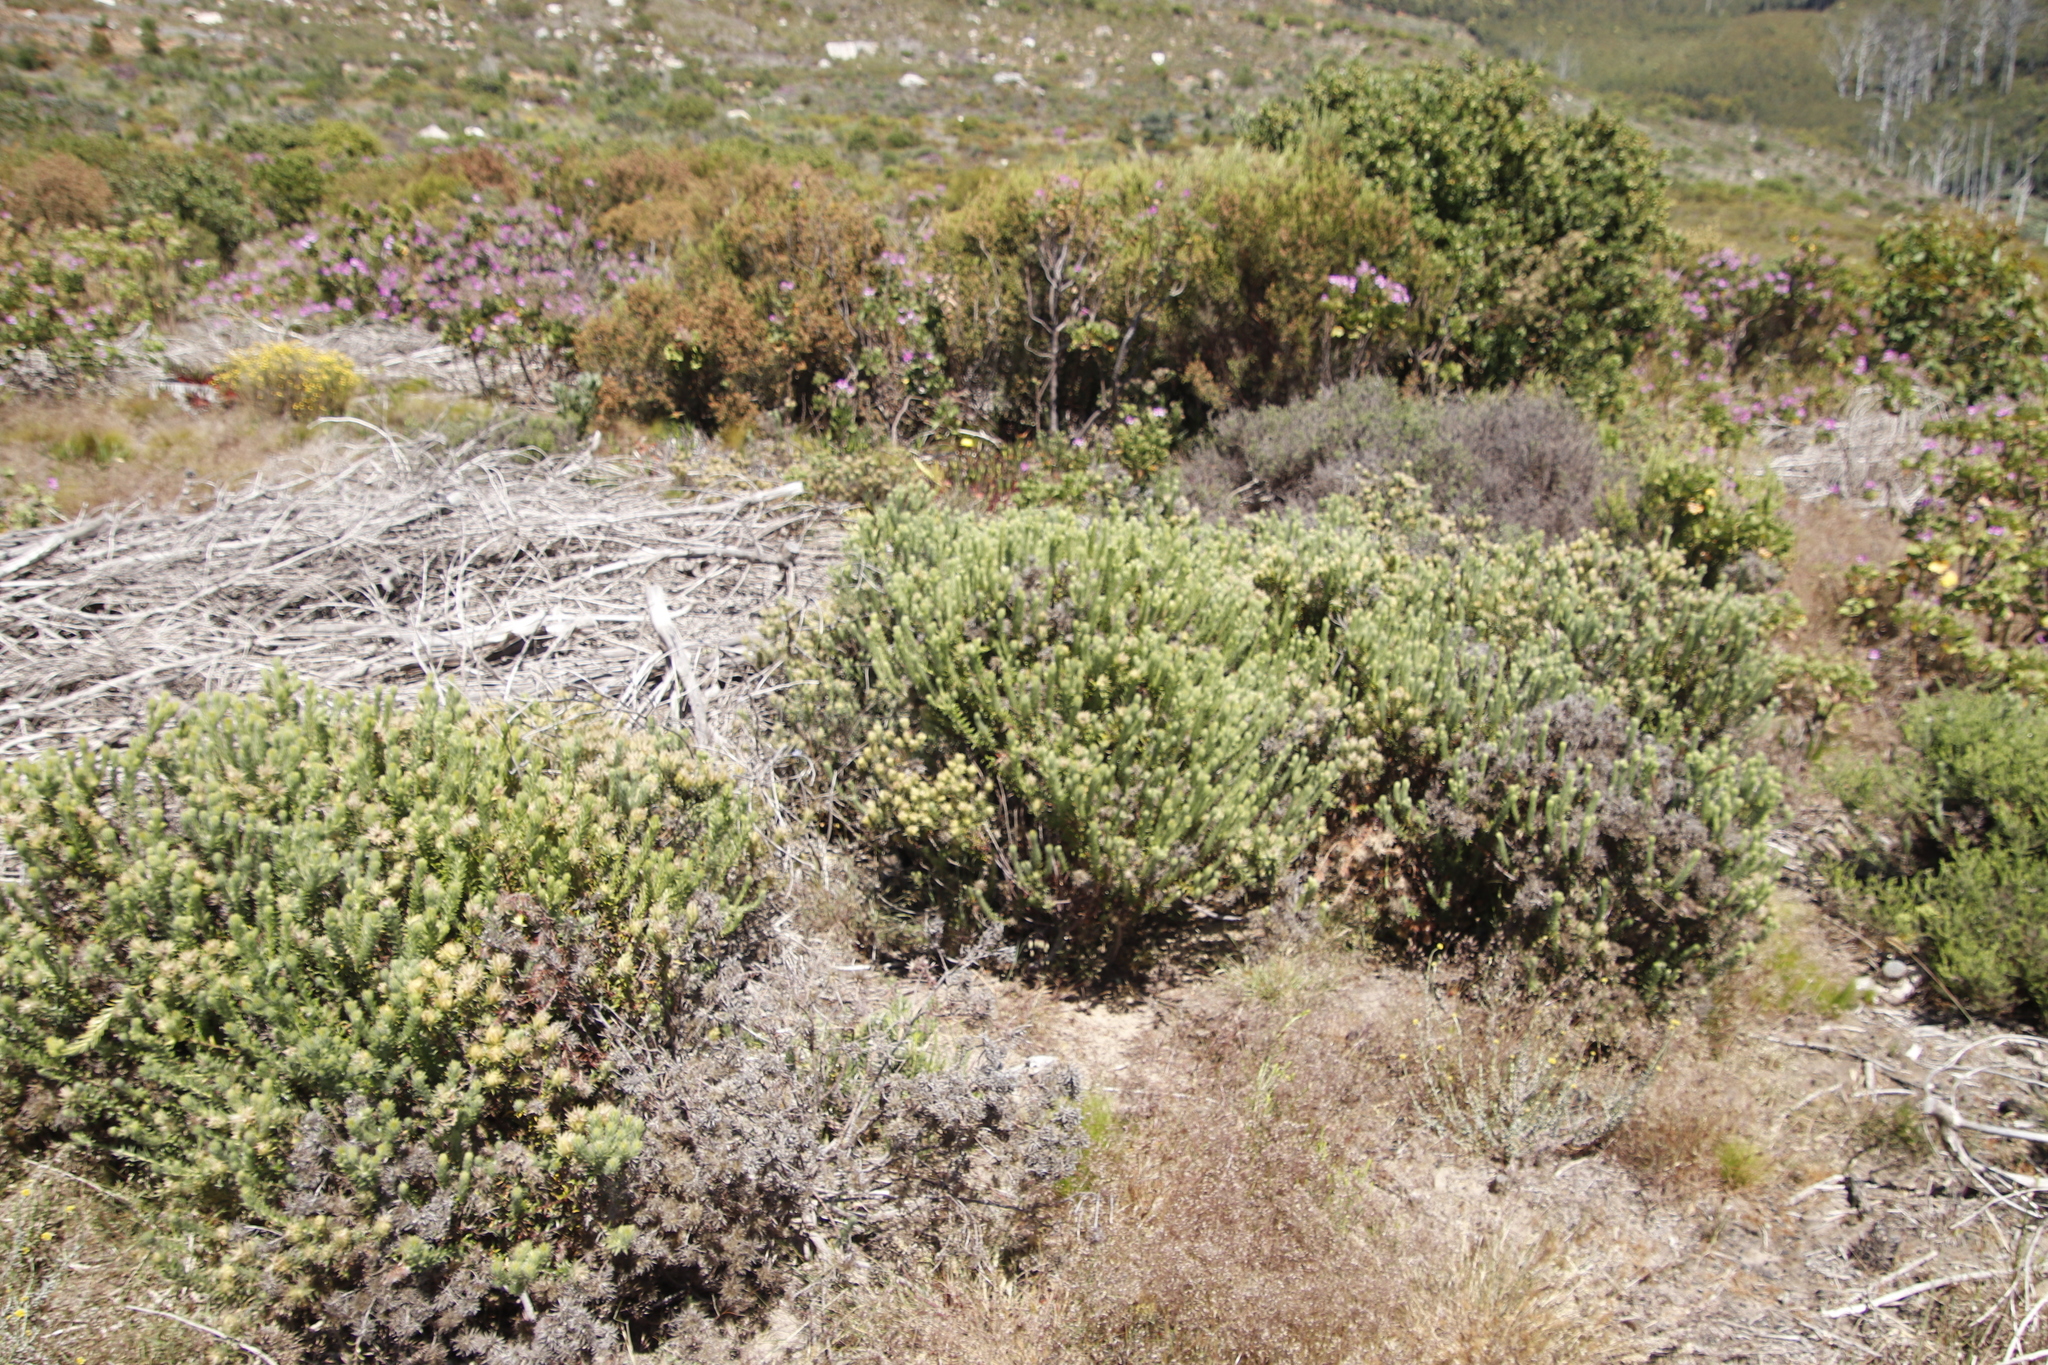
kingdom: Plantae
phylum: Tracheophyta
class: Magnoliopsida
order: Asterales
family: Asteraceae
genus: Metalasia
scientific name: Metalasia densa
